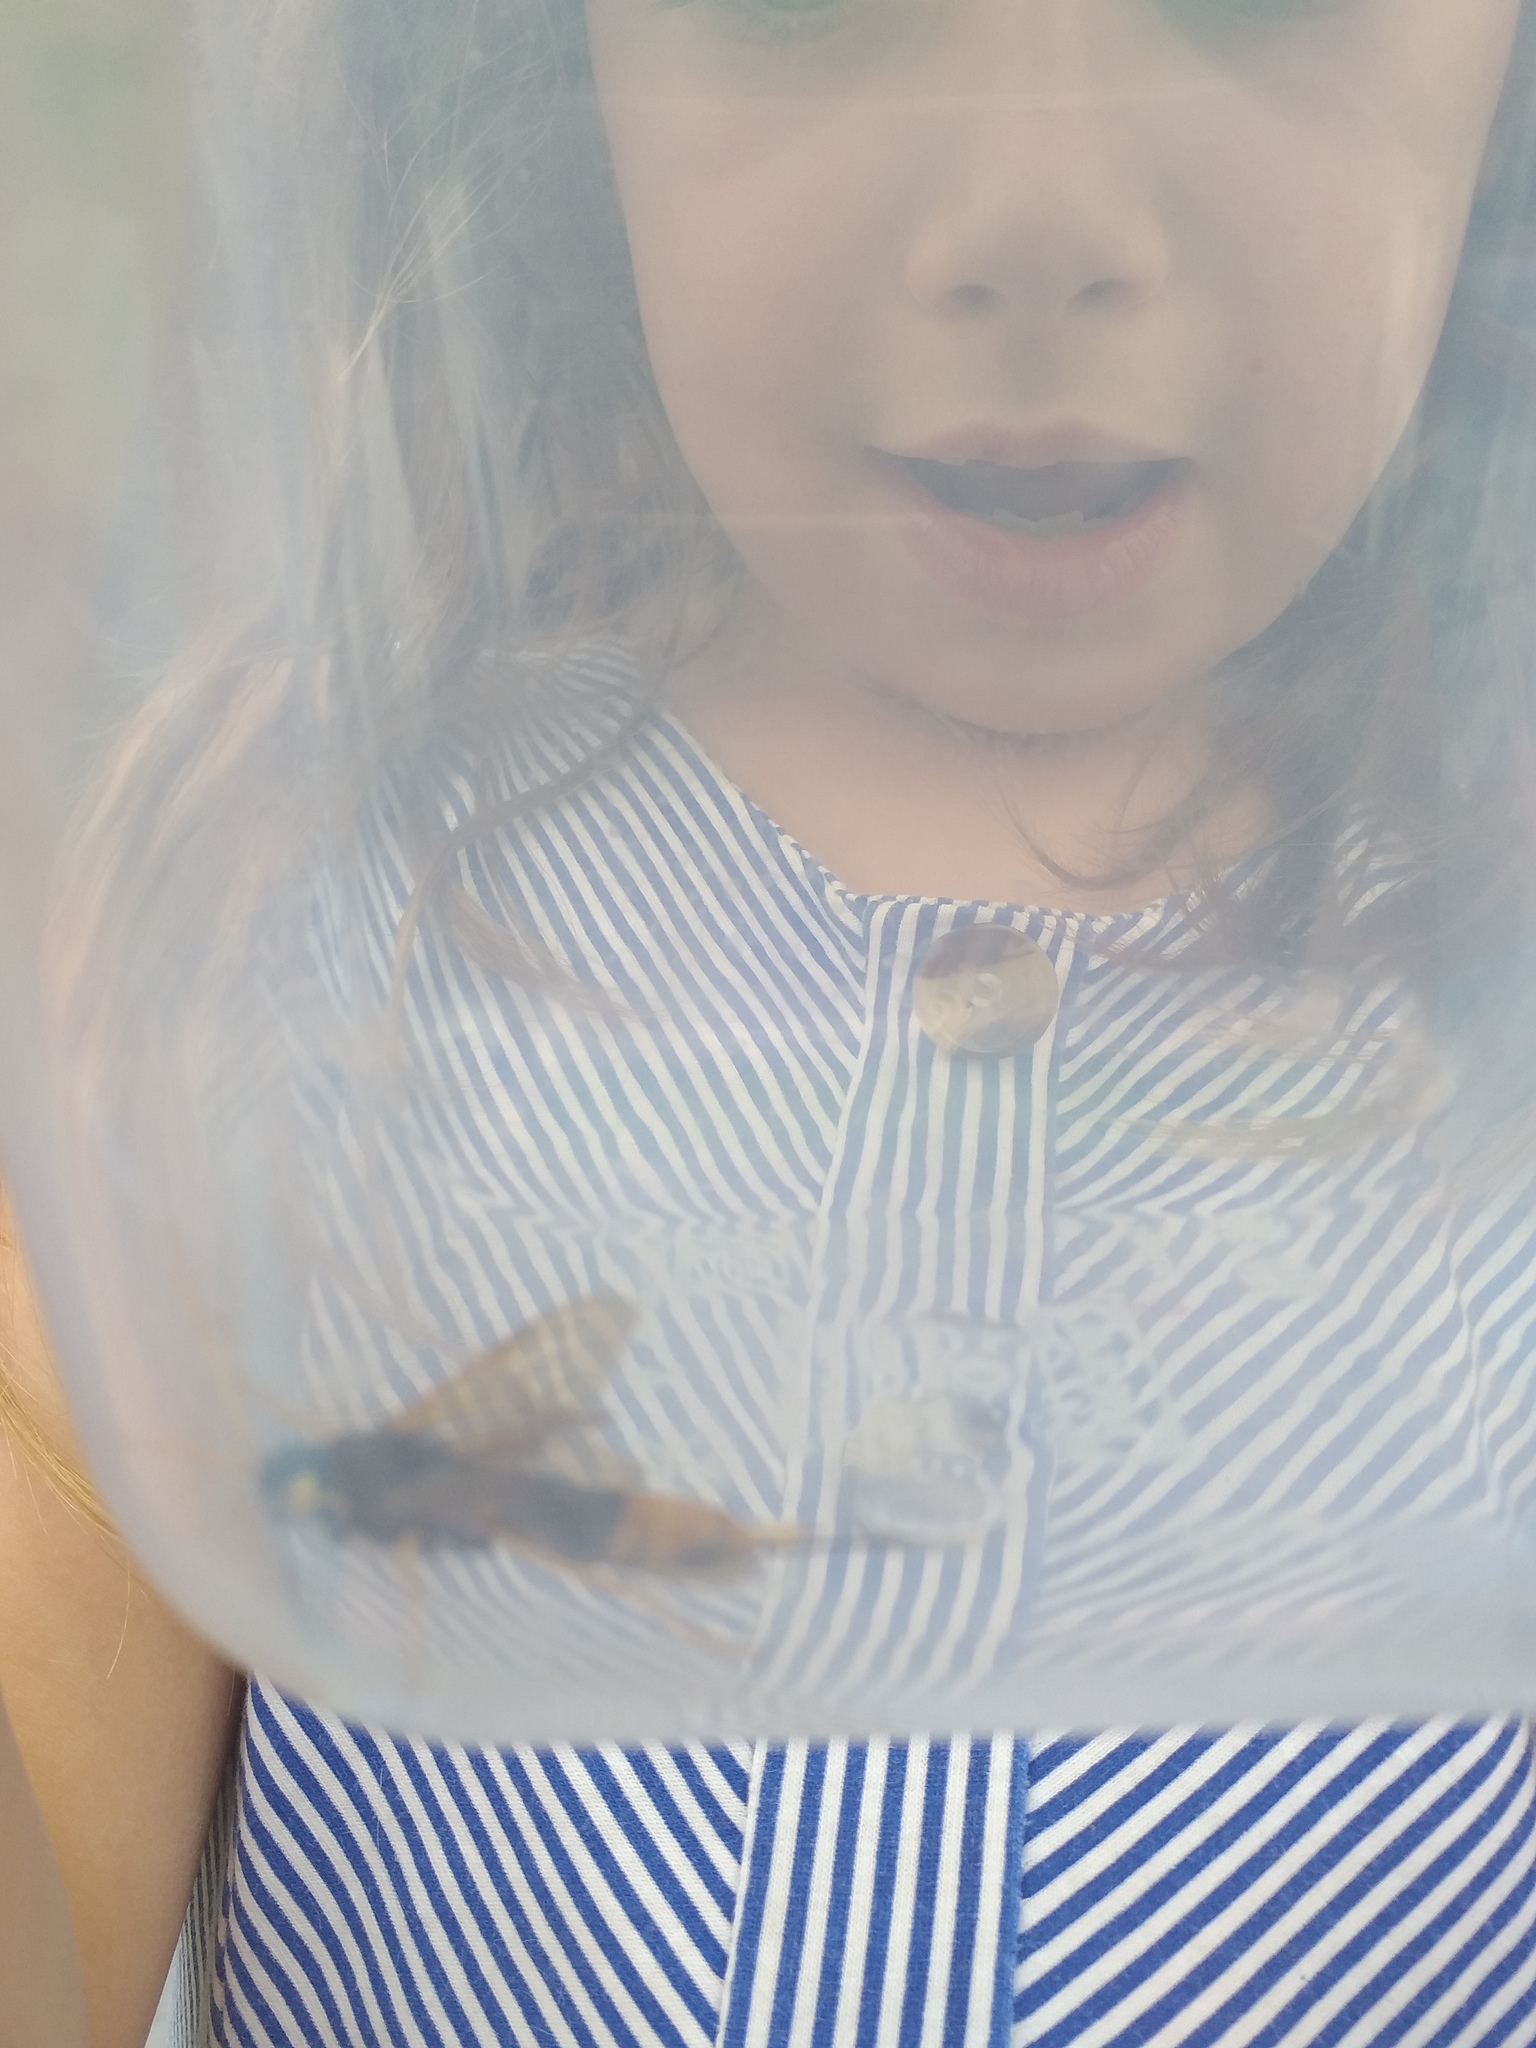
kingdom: Animalia
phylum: Arthropoda
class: Insecta
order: Hymenoptera
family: Siricidae
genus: Urocerus
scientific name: Urocerus gigas
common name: Giant woodwasp
